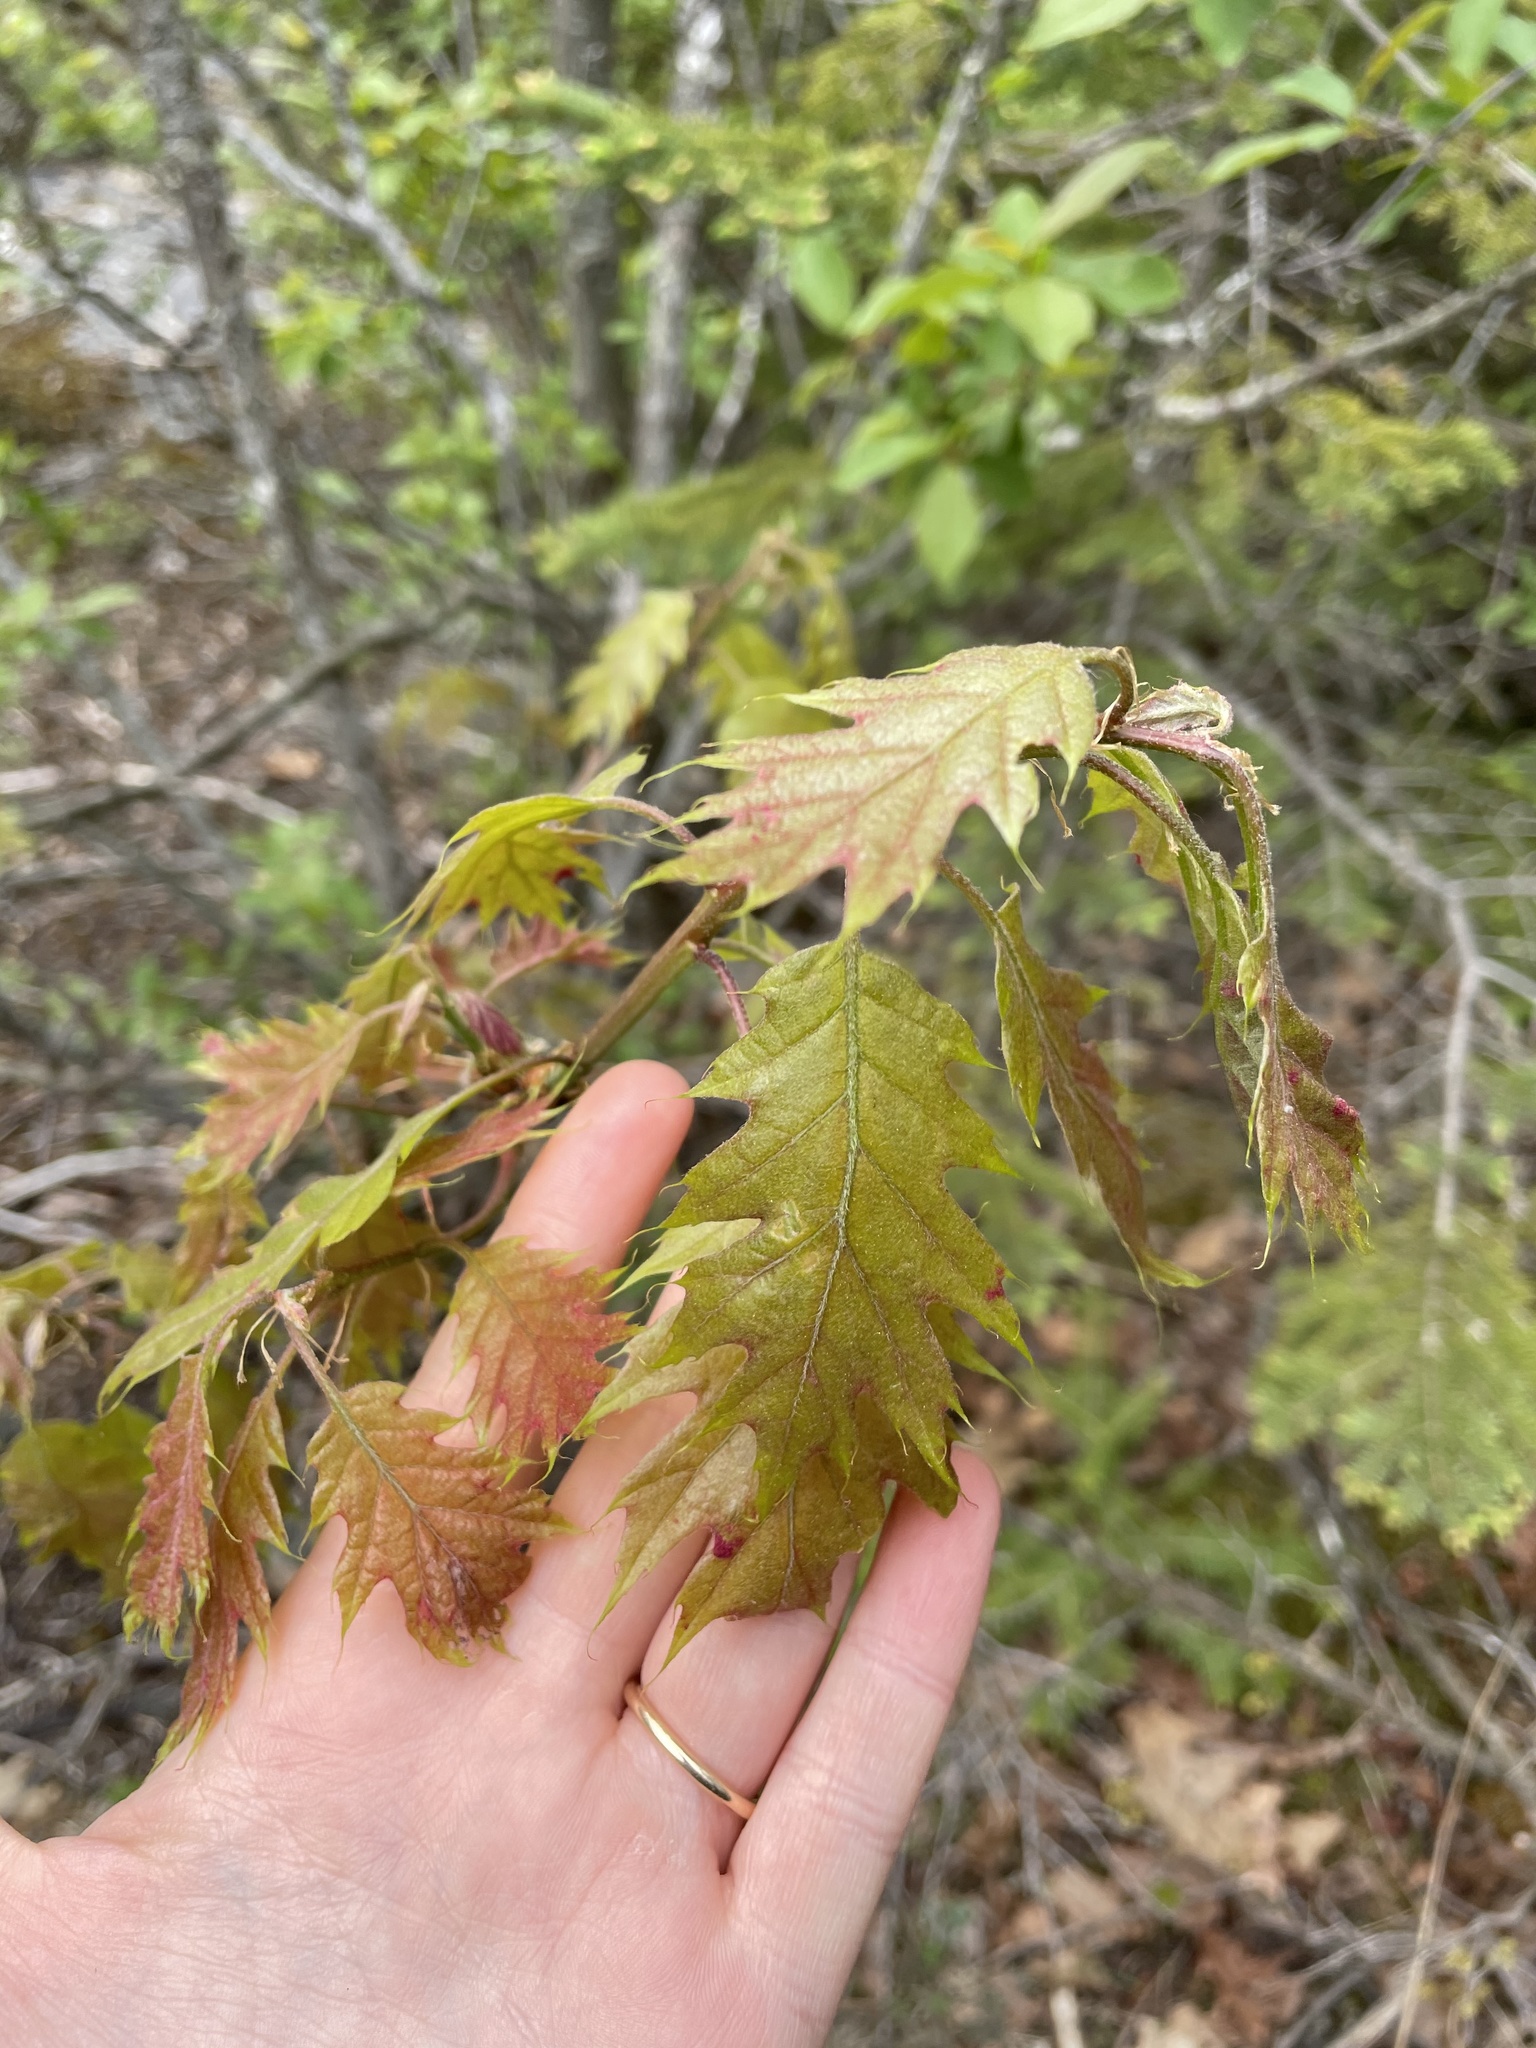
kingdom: Plantae
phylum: Tracheophyta
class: Magnoliopsida
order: Fagales
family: Fagaceae
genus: Quercus
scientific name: Quercus rubra
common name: Red oak
